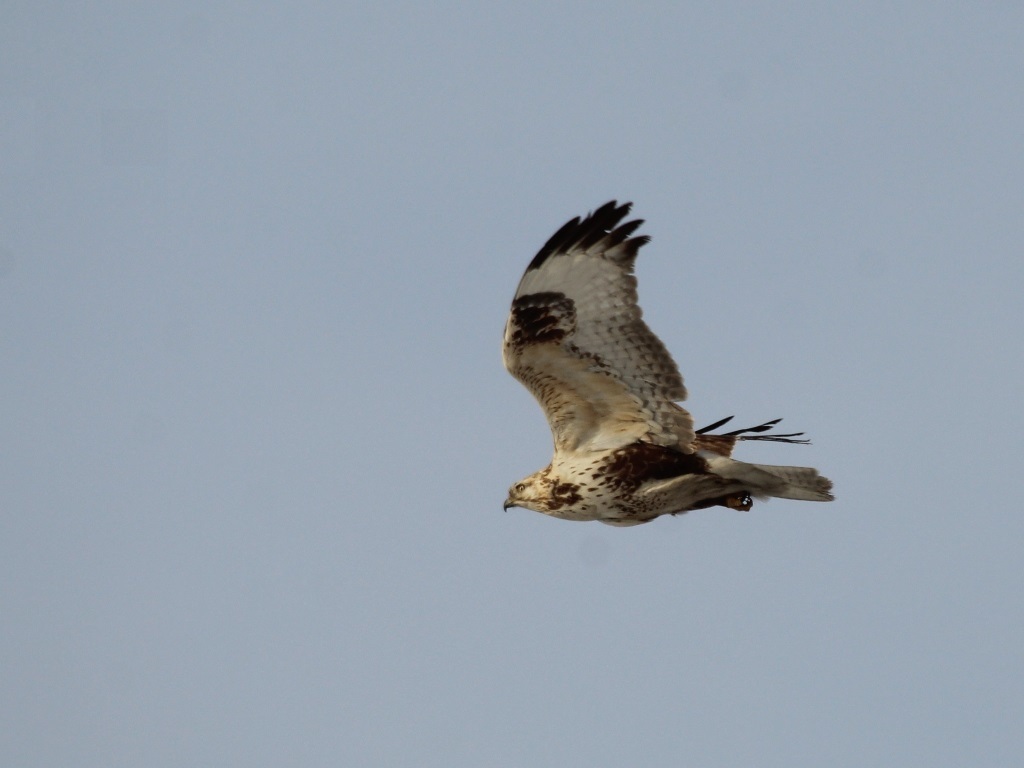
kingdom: Animalia
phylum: Chordata
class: Aves
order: Accipitriformes
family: Accipitridae
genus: Buteo
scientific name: Buteo hemilasius
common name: Upland buzzard
